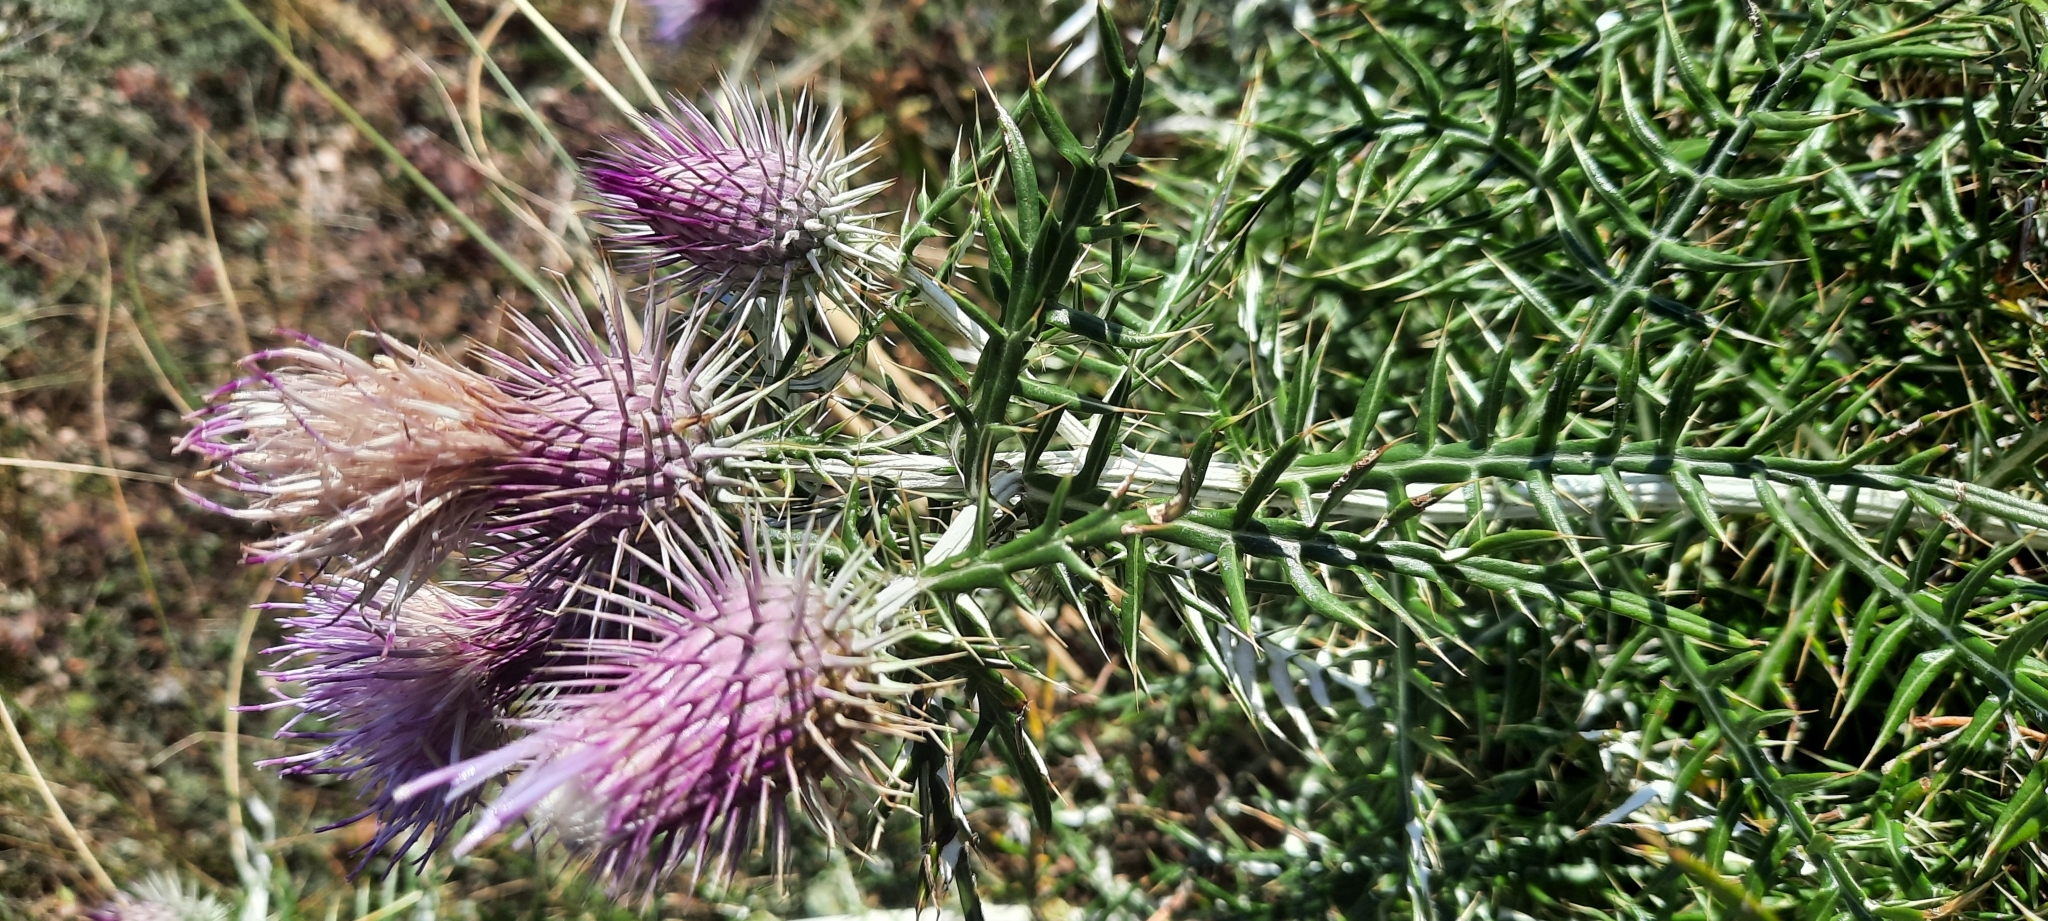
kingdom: Plantae
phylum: Tracheophyta
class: Magnoliopsida
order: Asterales
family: Asteraceae
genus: Ptilostemon
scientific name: Ptilostemon echinocephalus
